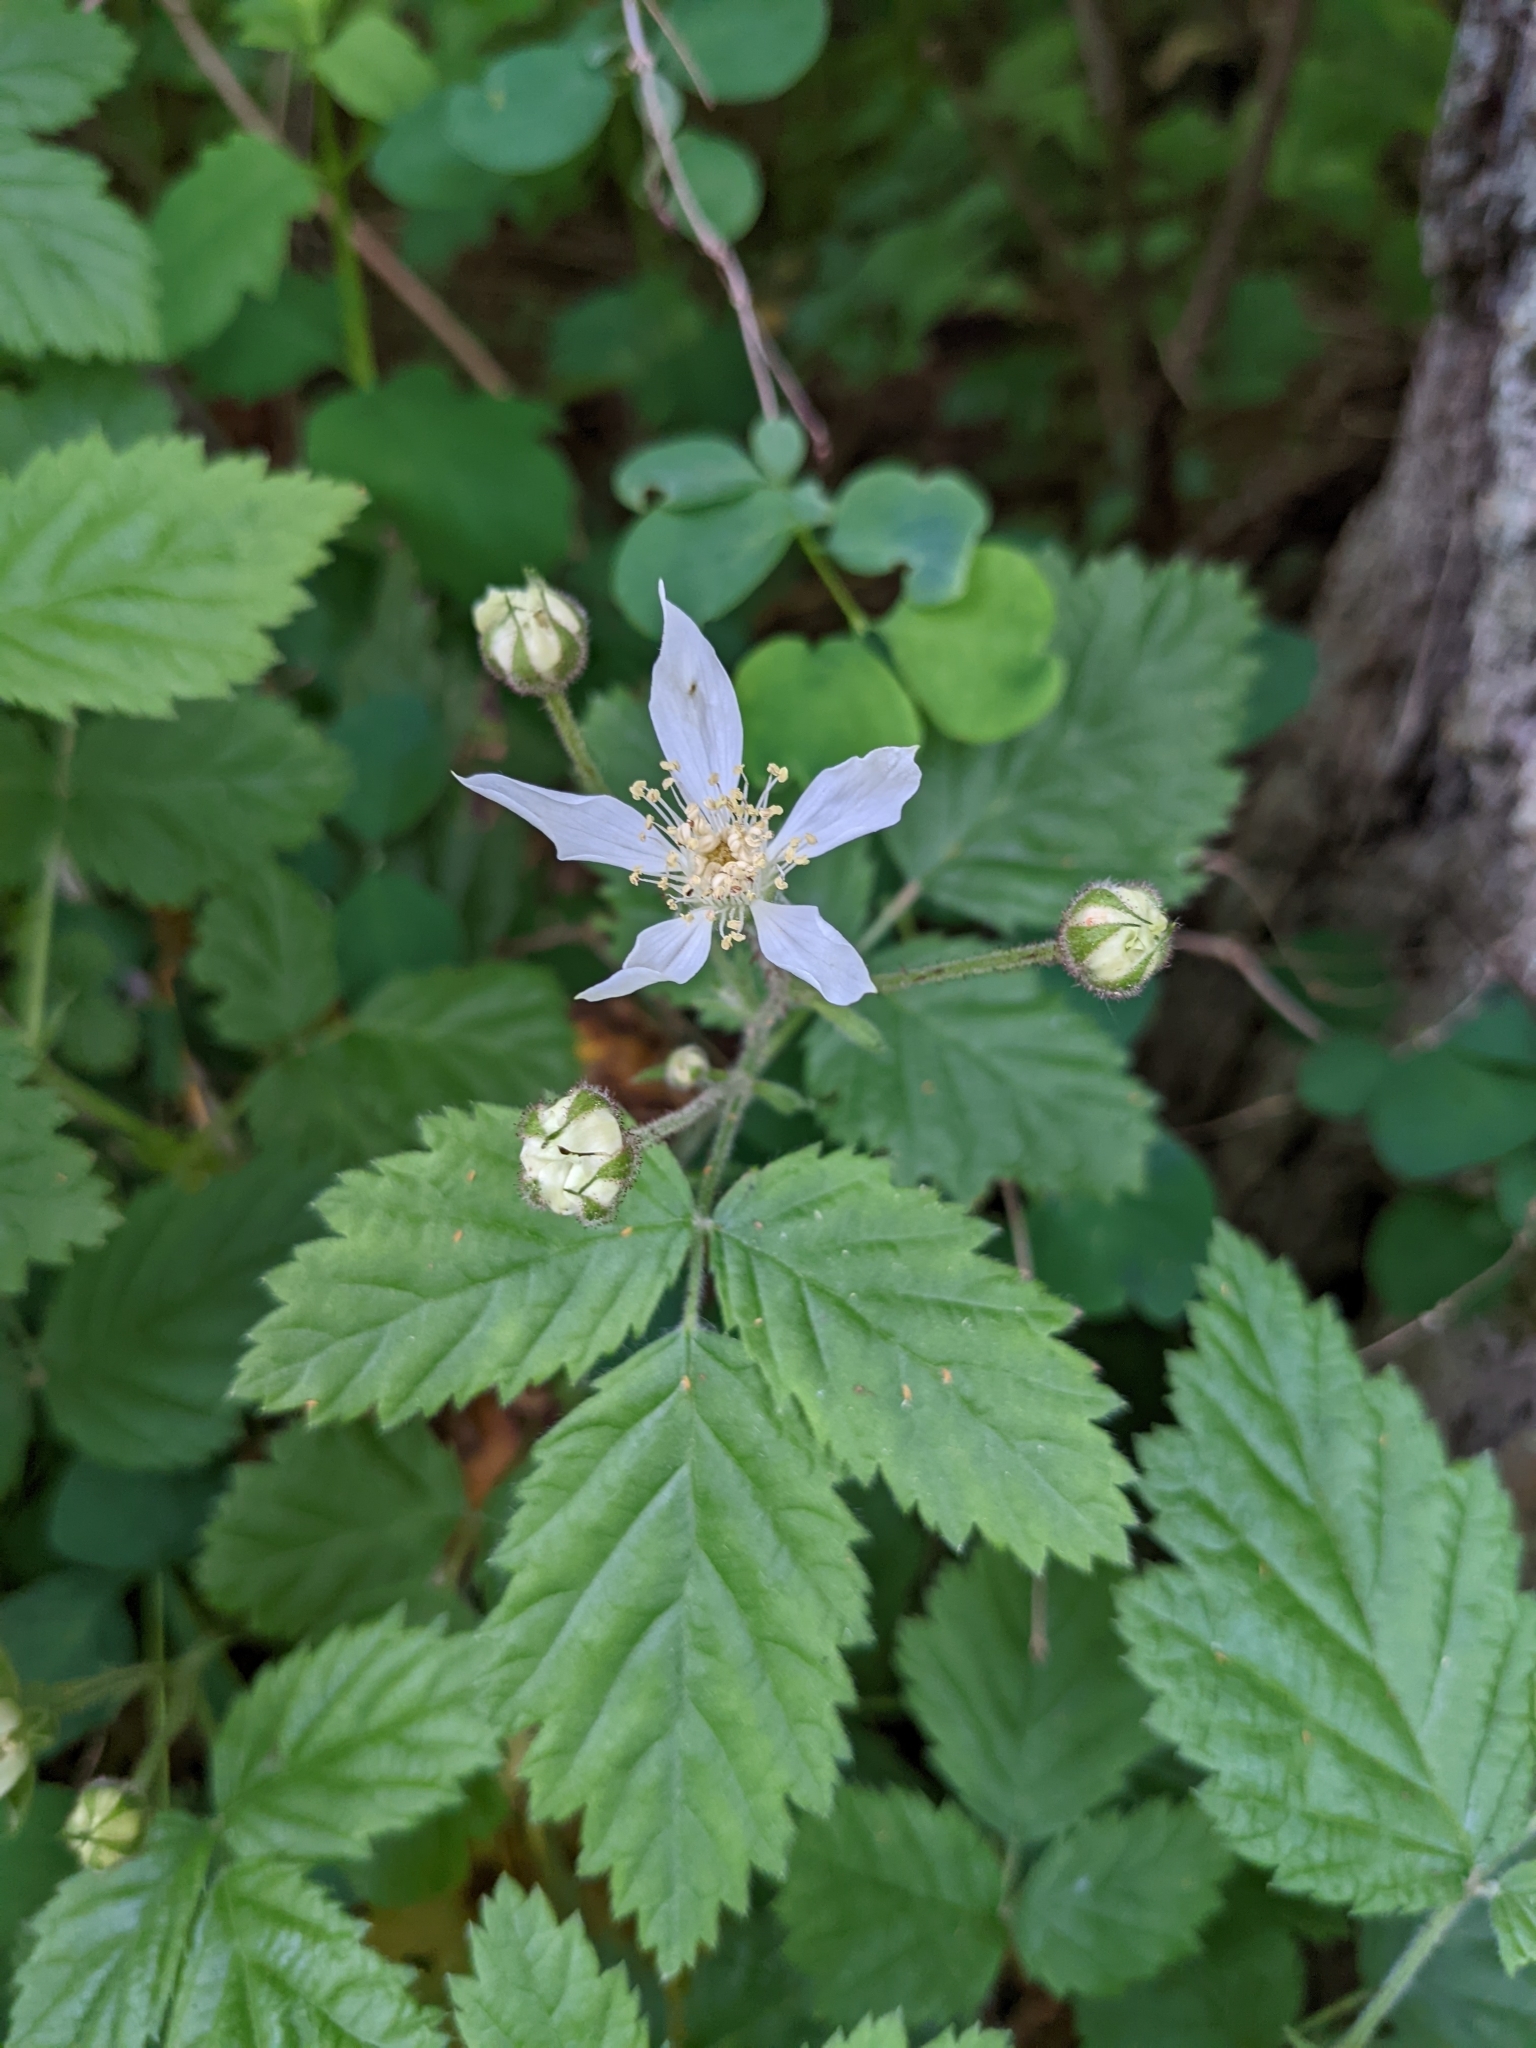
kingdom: Plantae
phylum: Tracheophyta
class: Magnoliopsida
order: Rosales
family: Rosaceae
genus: Rubus
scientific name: Rubus ursinus
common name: Pacific blackberry
